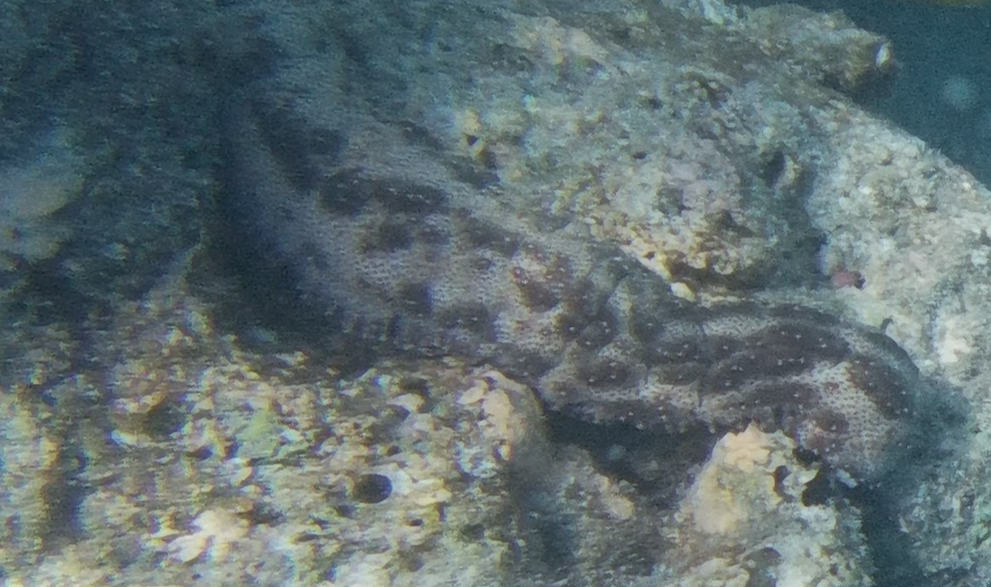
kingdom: Animalia
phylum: Echinodermata
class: Holothuroidea
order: Holothuriida
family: Holothuriidae
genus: Pearsonothuria
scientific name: Pearsonothuria graeffei
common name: Blackspotted sea cucumber
